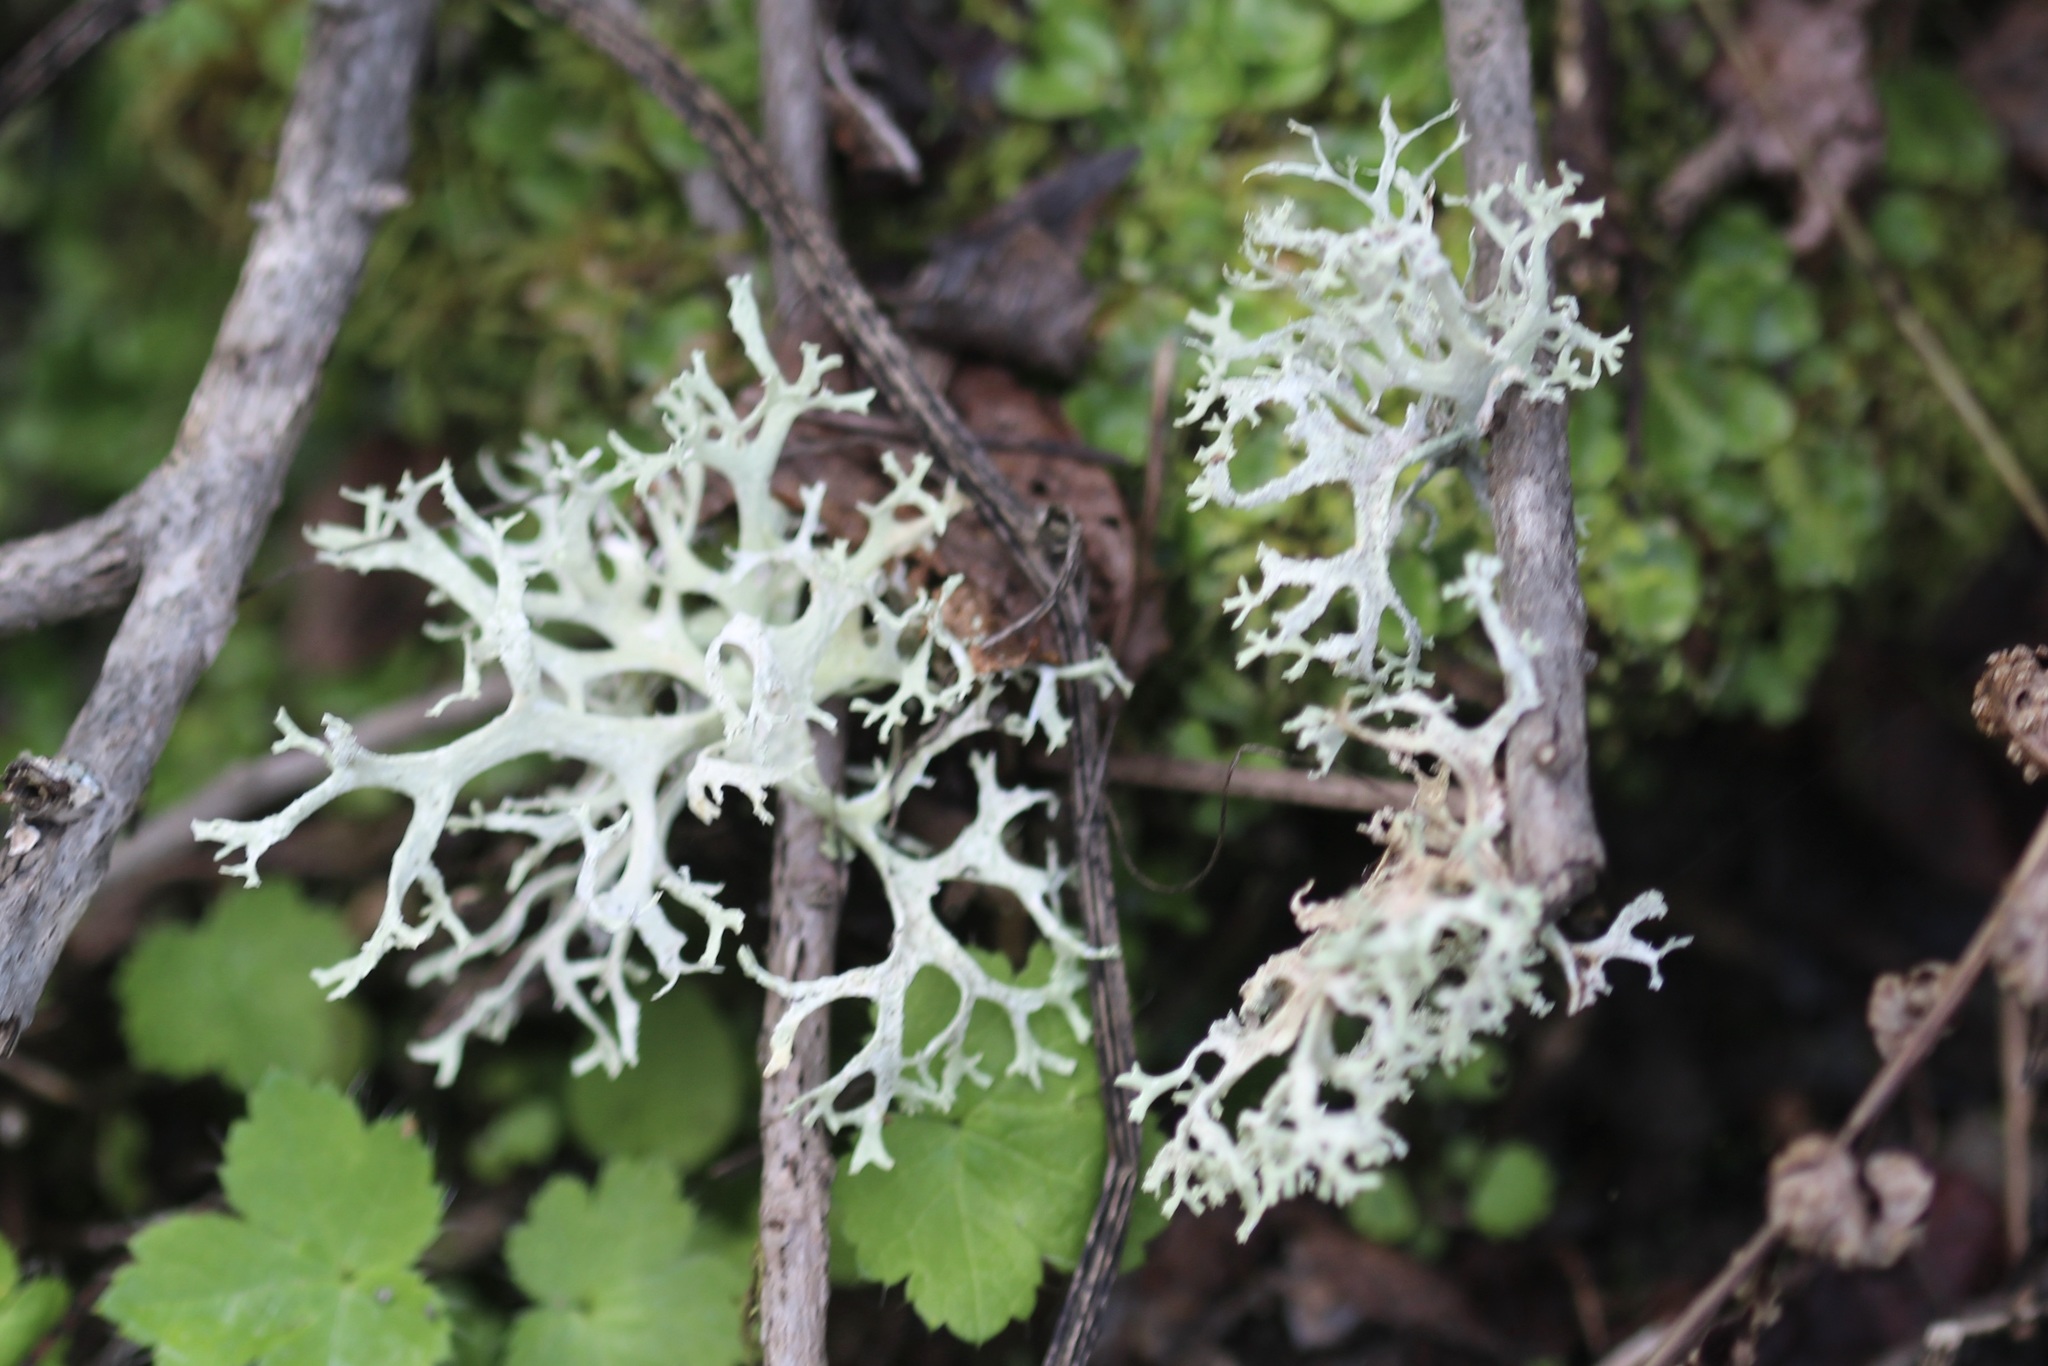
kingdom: Fungi
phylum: Ascomycota
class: Lecanoromycetes
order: Lecanorales
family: Parmeliaceae
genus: Evernia
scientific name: Evernia prunastri
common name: Oak moss
